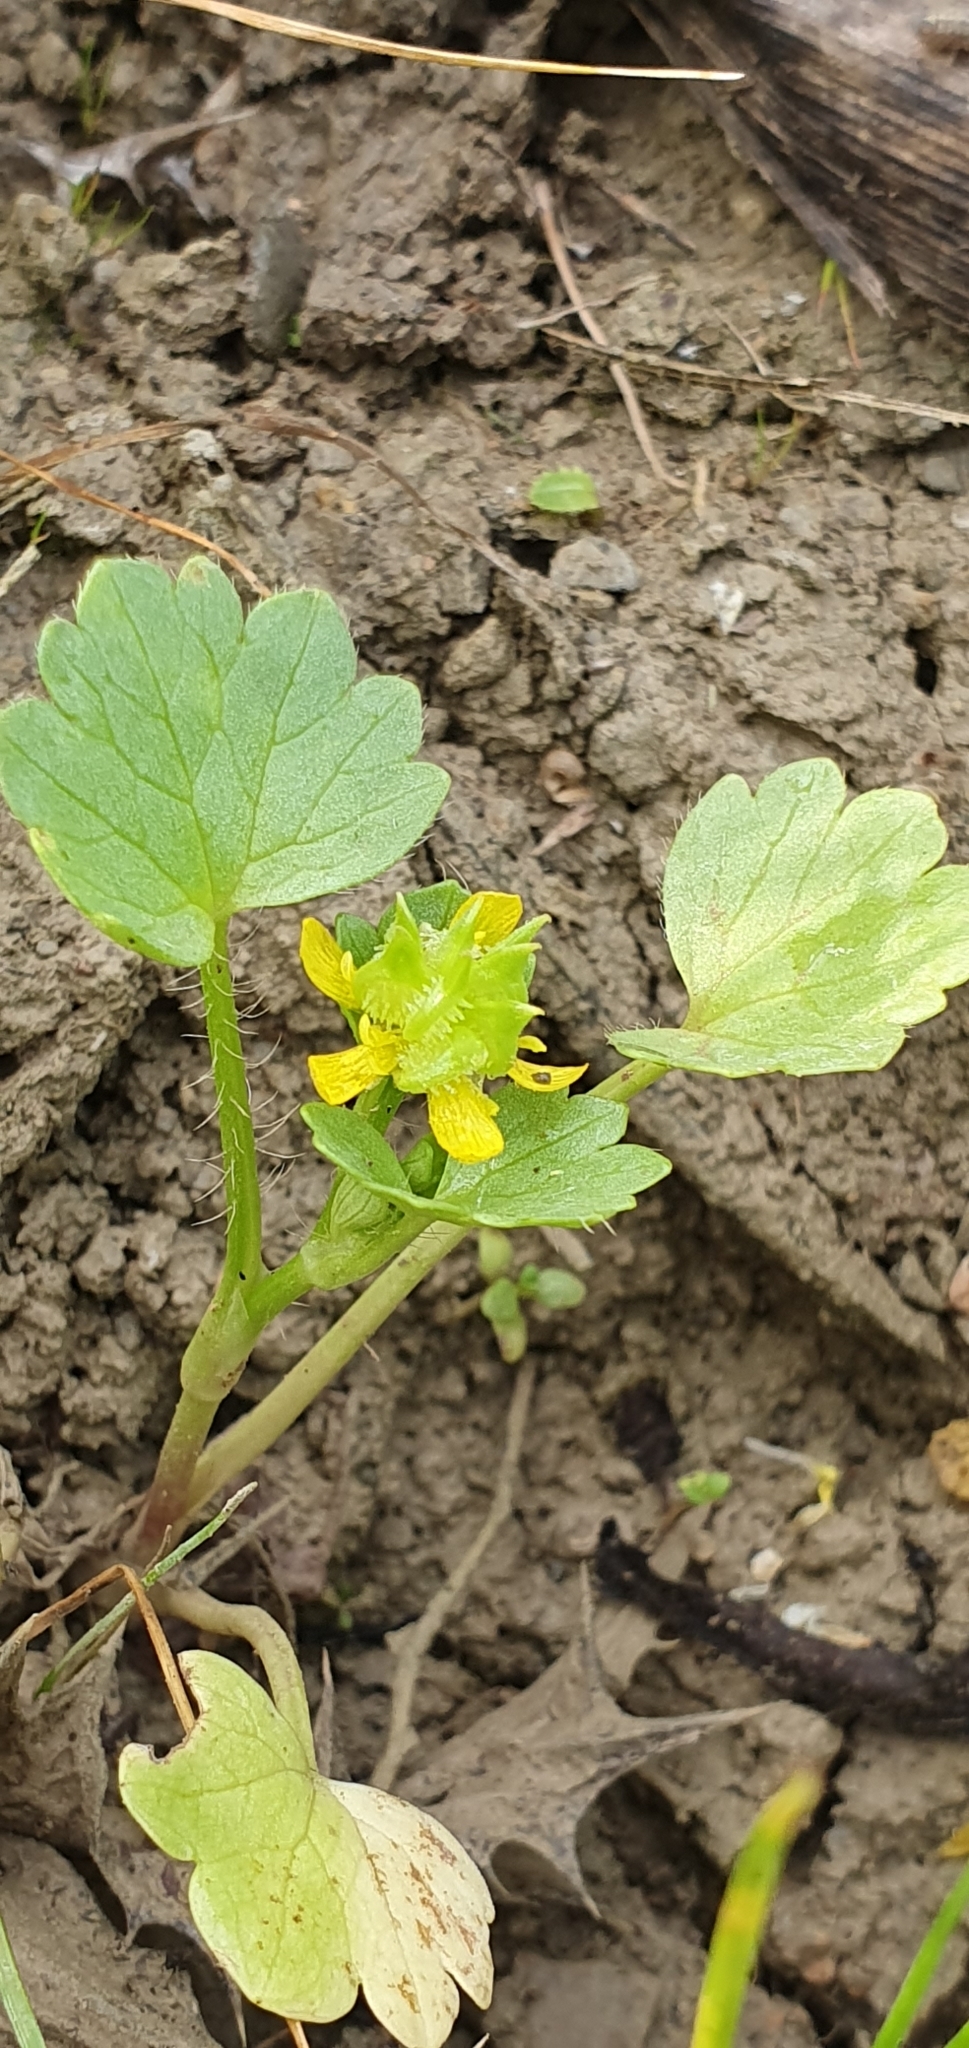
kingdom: Plantae
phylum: Tracheophyta
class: Magnoliopsida
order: Ranunculales
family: Ranunculaceae
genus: Ranunculus
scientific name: Ranunculus muricatus
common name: Rough-fruited buttercup
